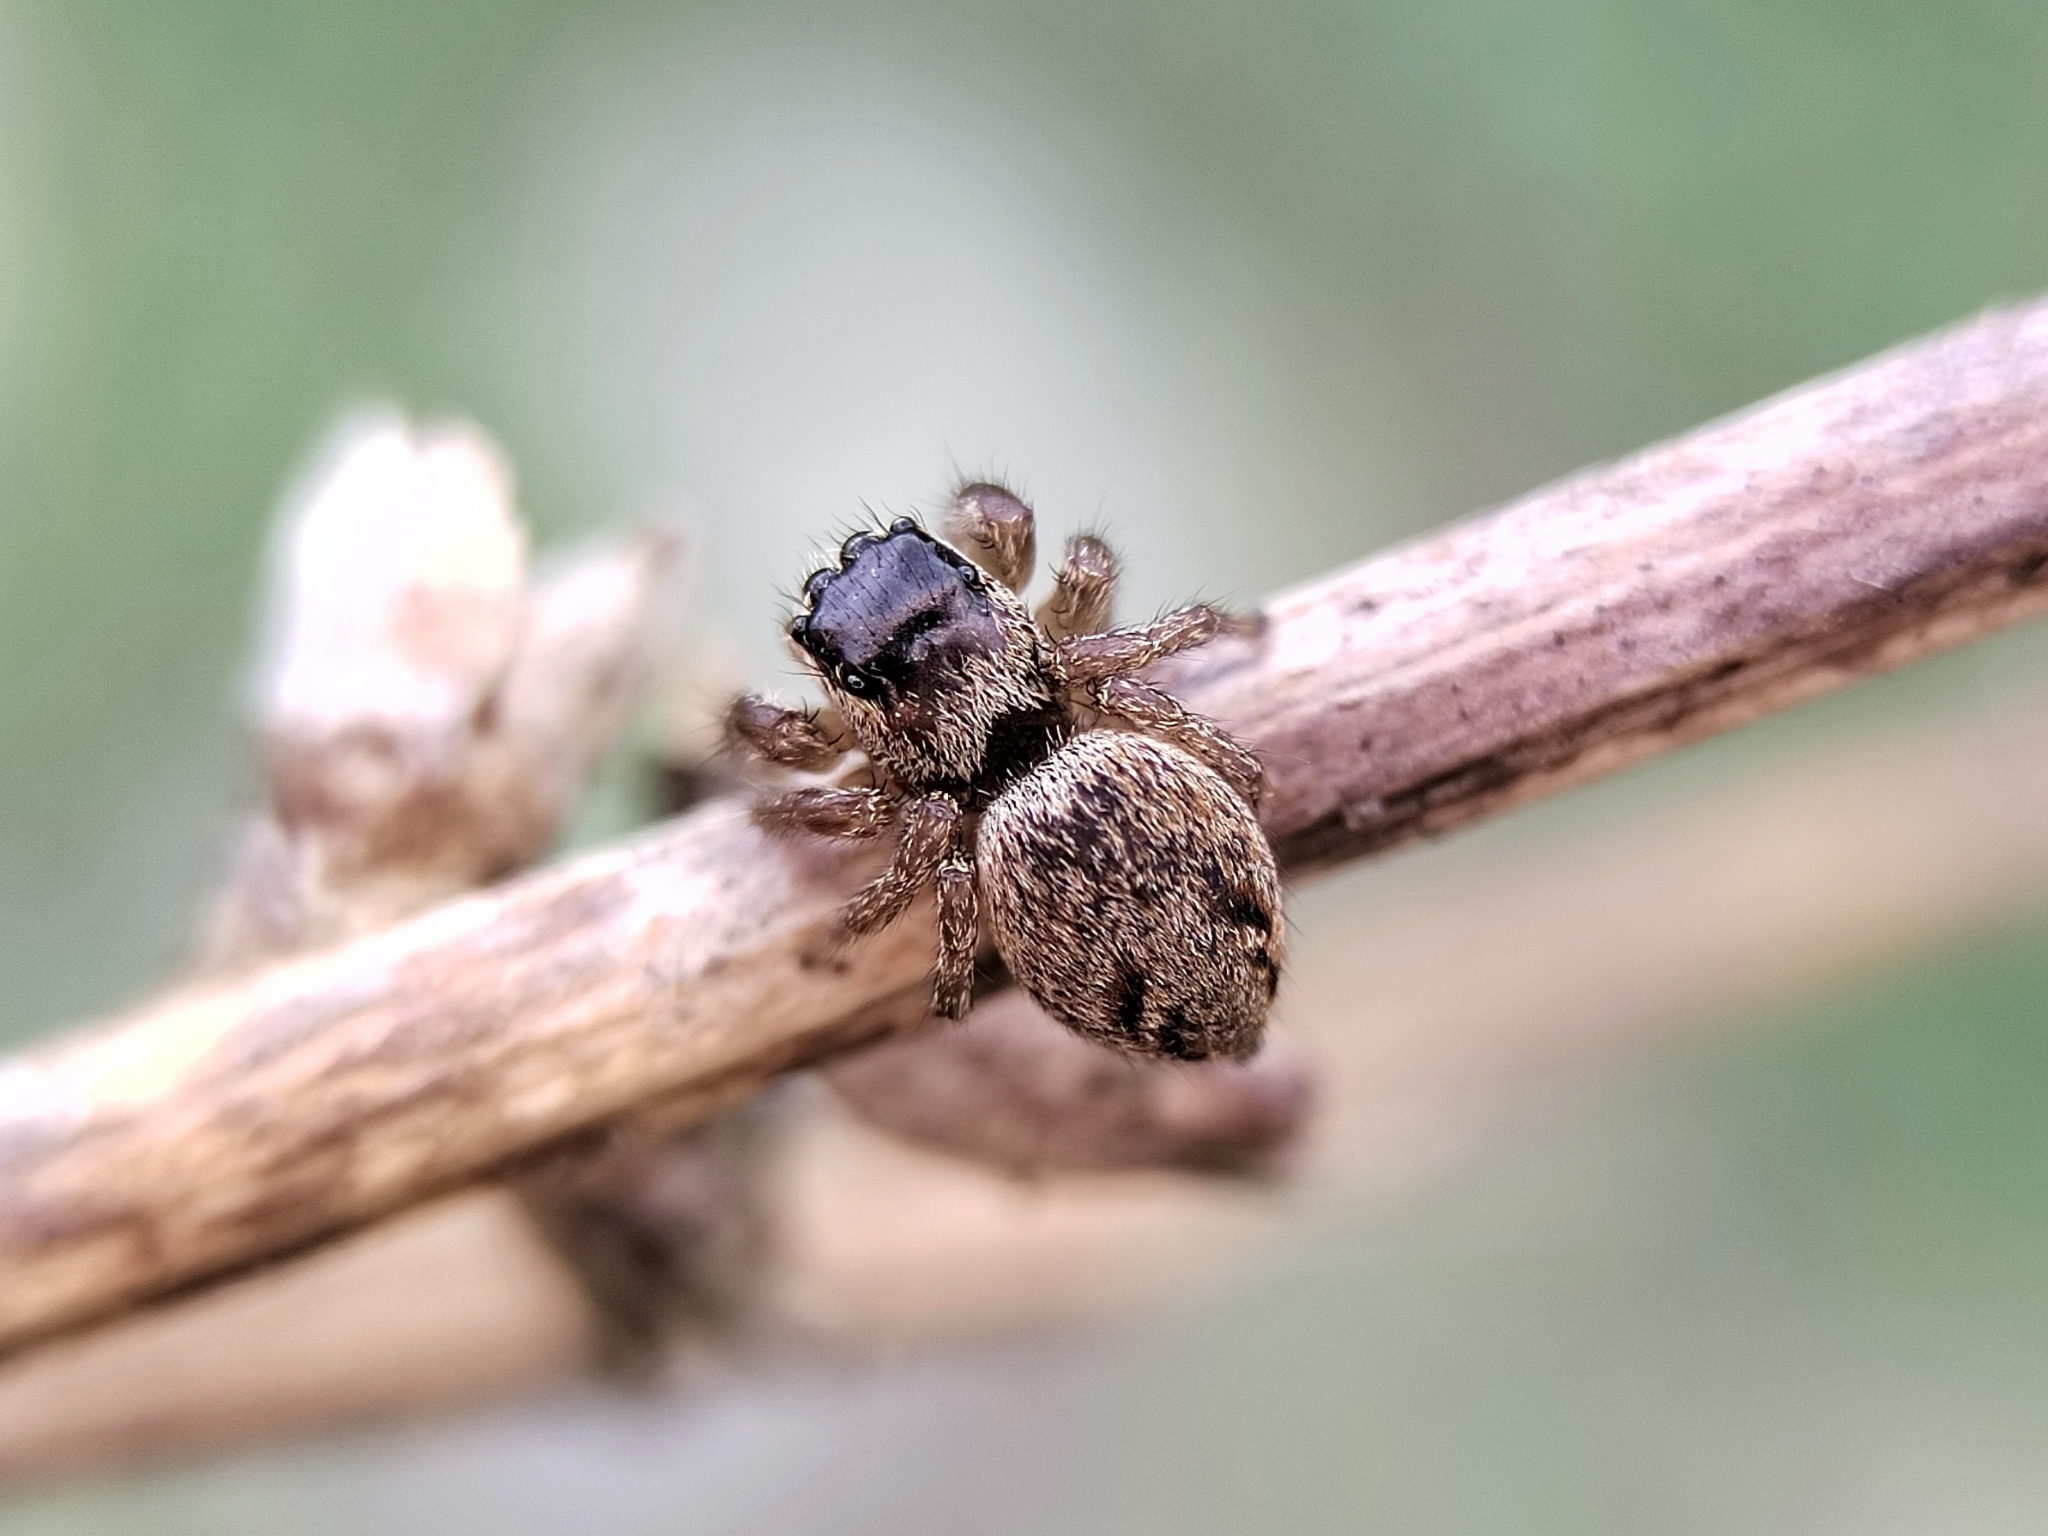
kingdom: Animalia
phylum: Arthropoda
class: Arachnida
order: Araneae
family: Salticidae
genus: Evarcha
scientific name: Evarcha arcuata
